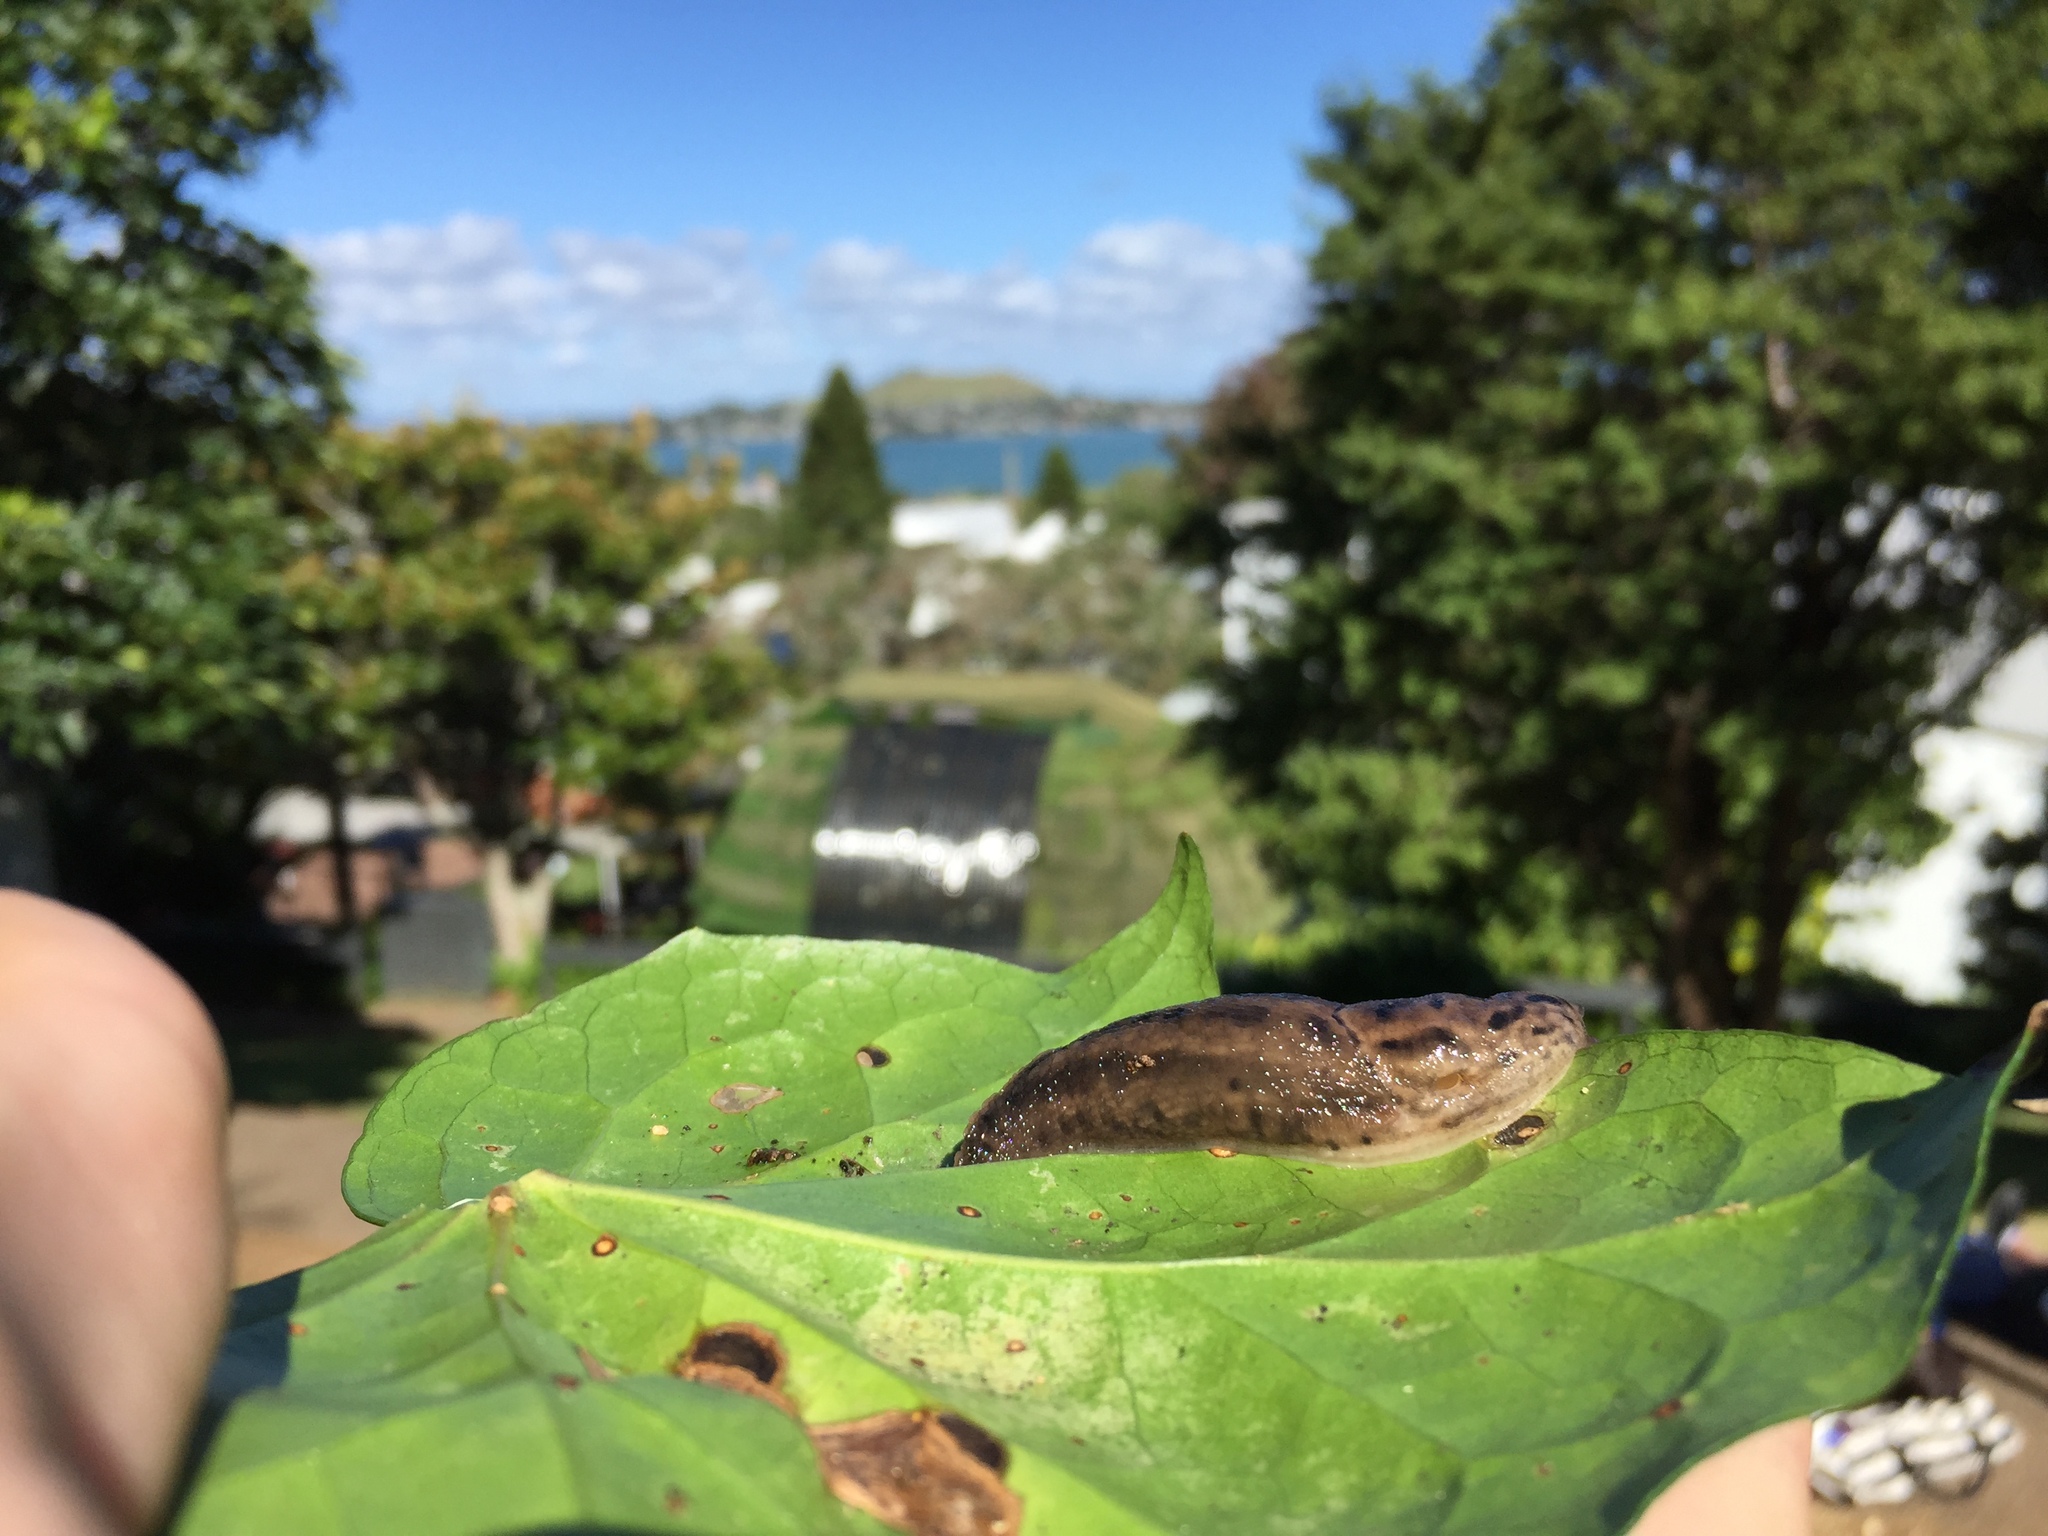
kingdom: Animalia
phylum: Mollusca
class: Gastropoda
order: Stylommatophora
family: Limacidae
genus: Limax
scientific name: Limax maximus
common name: Great grey slug
